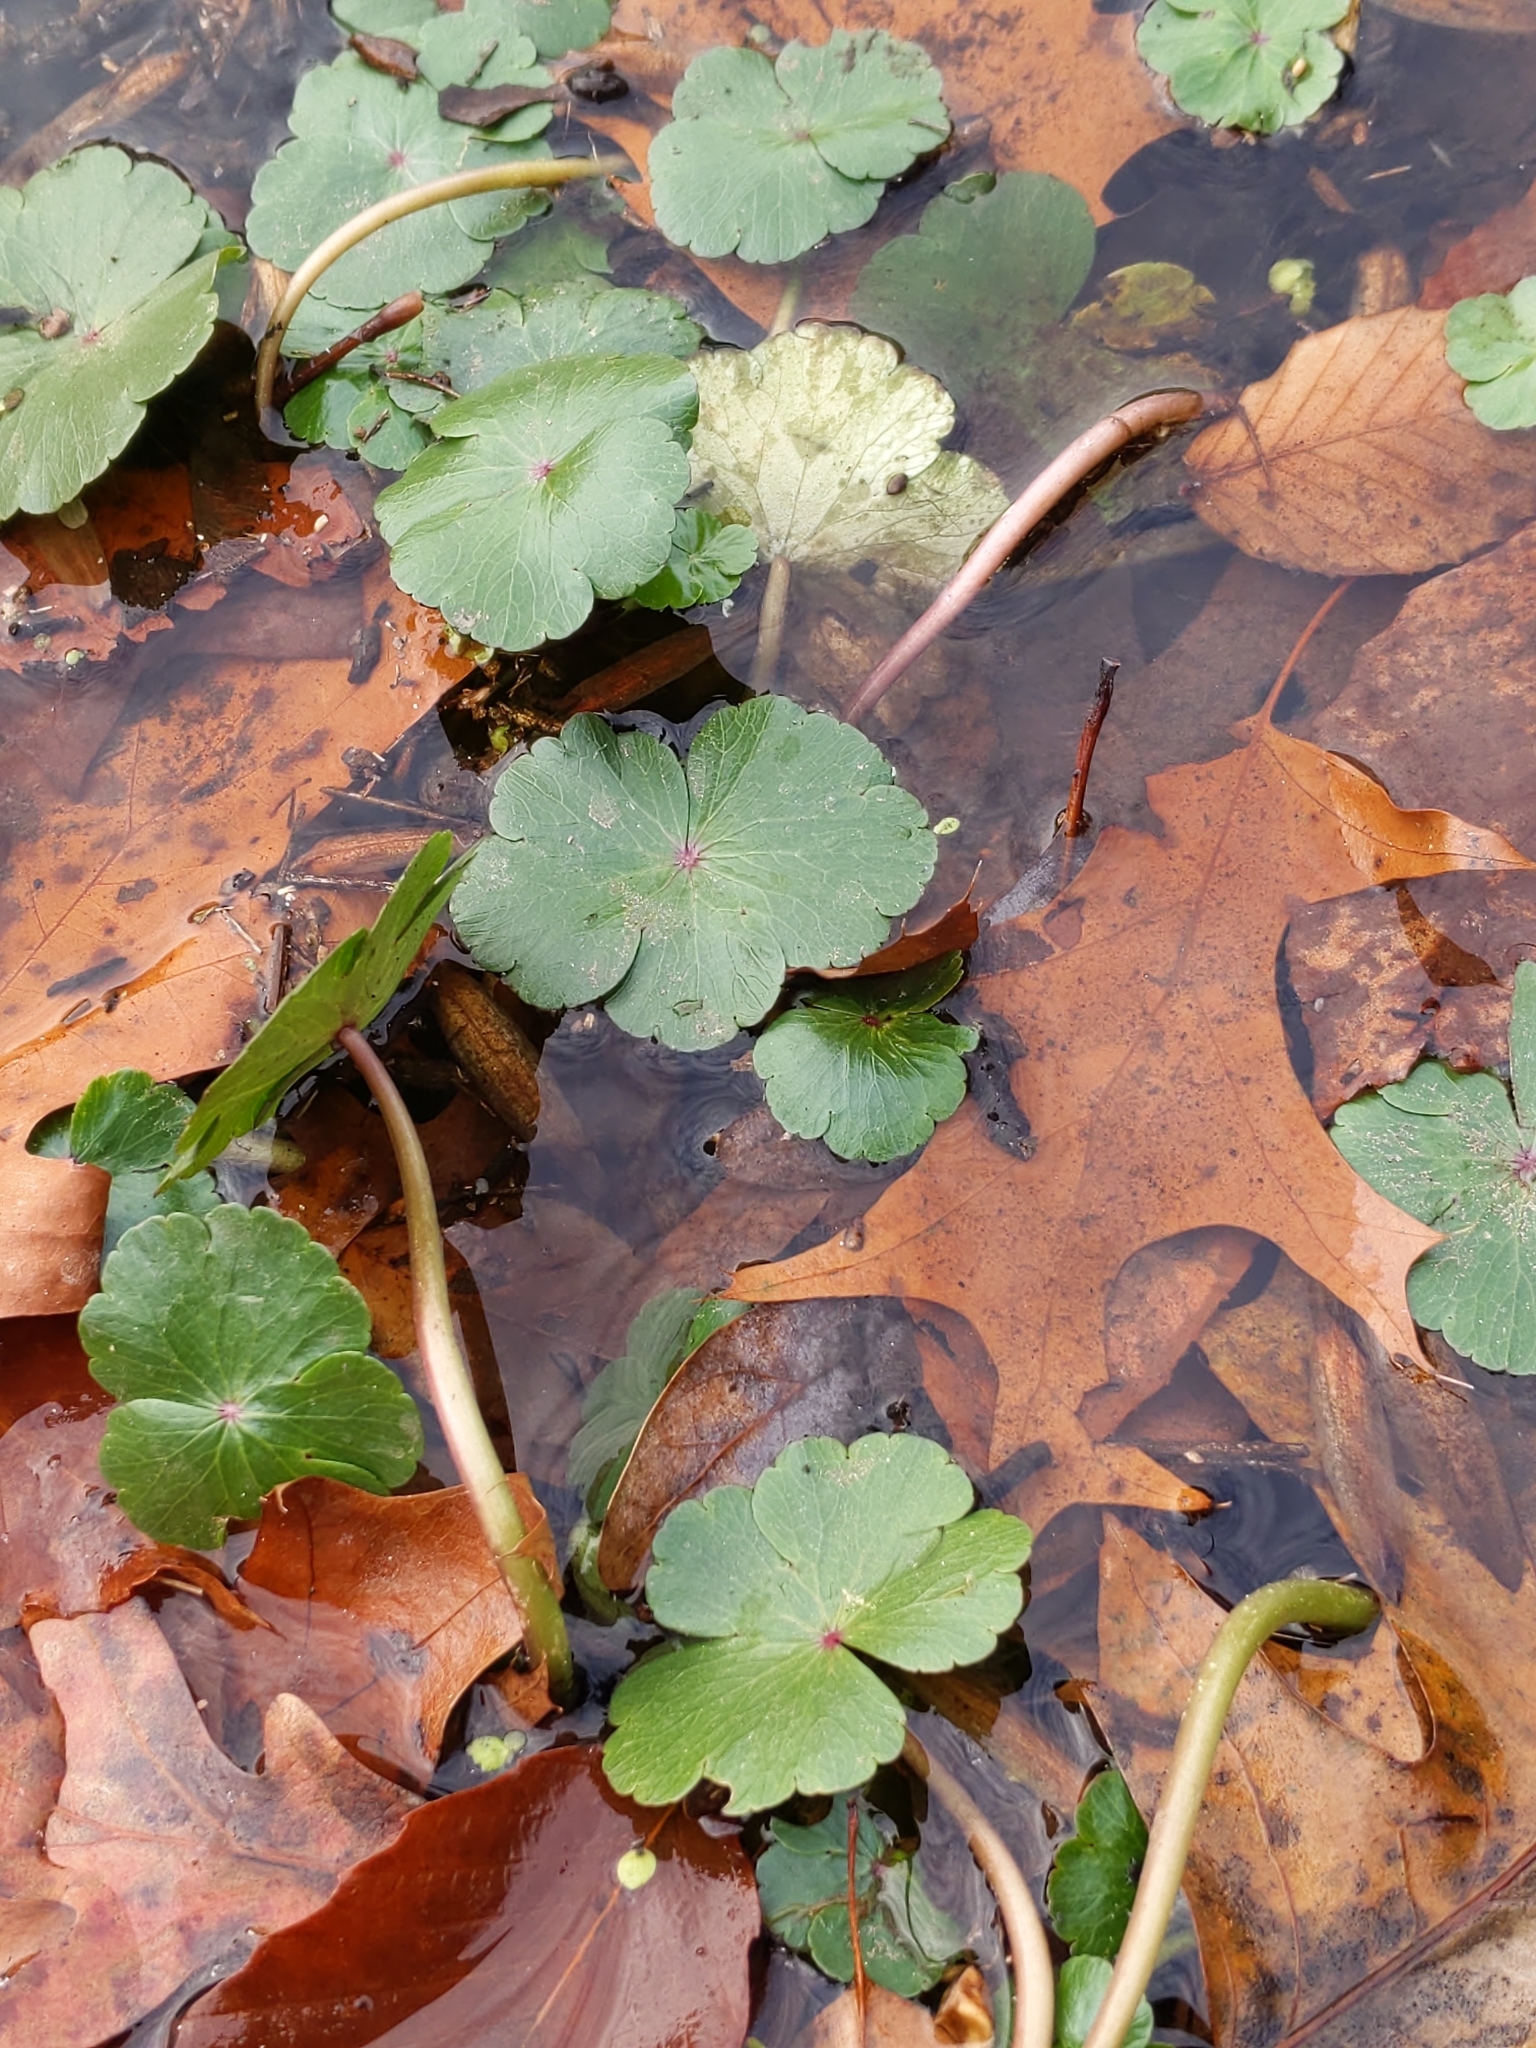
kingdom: Plantae
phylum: Tracheophyta
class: Magnoliopsida
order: Apiales
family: Araliaceae
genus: Hydrocotyle
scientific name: Hydrocotyle ranunculoides
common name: Floating pennywort
